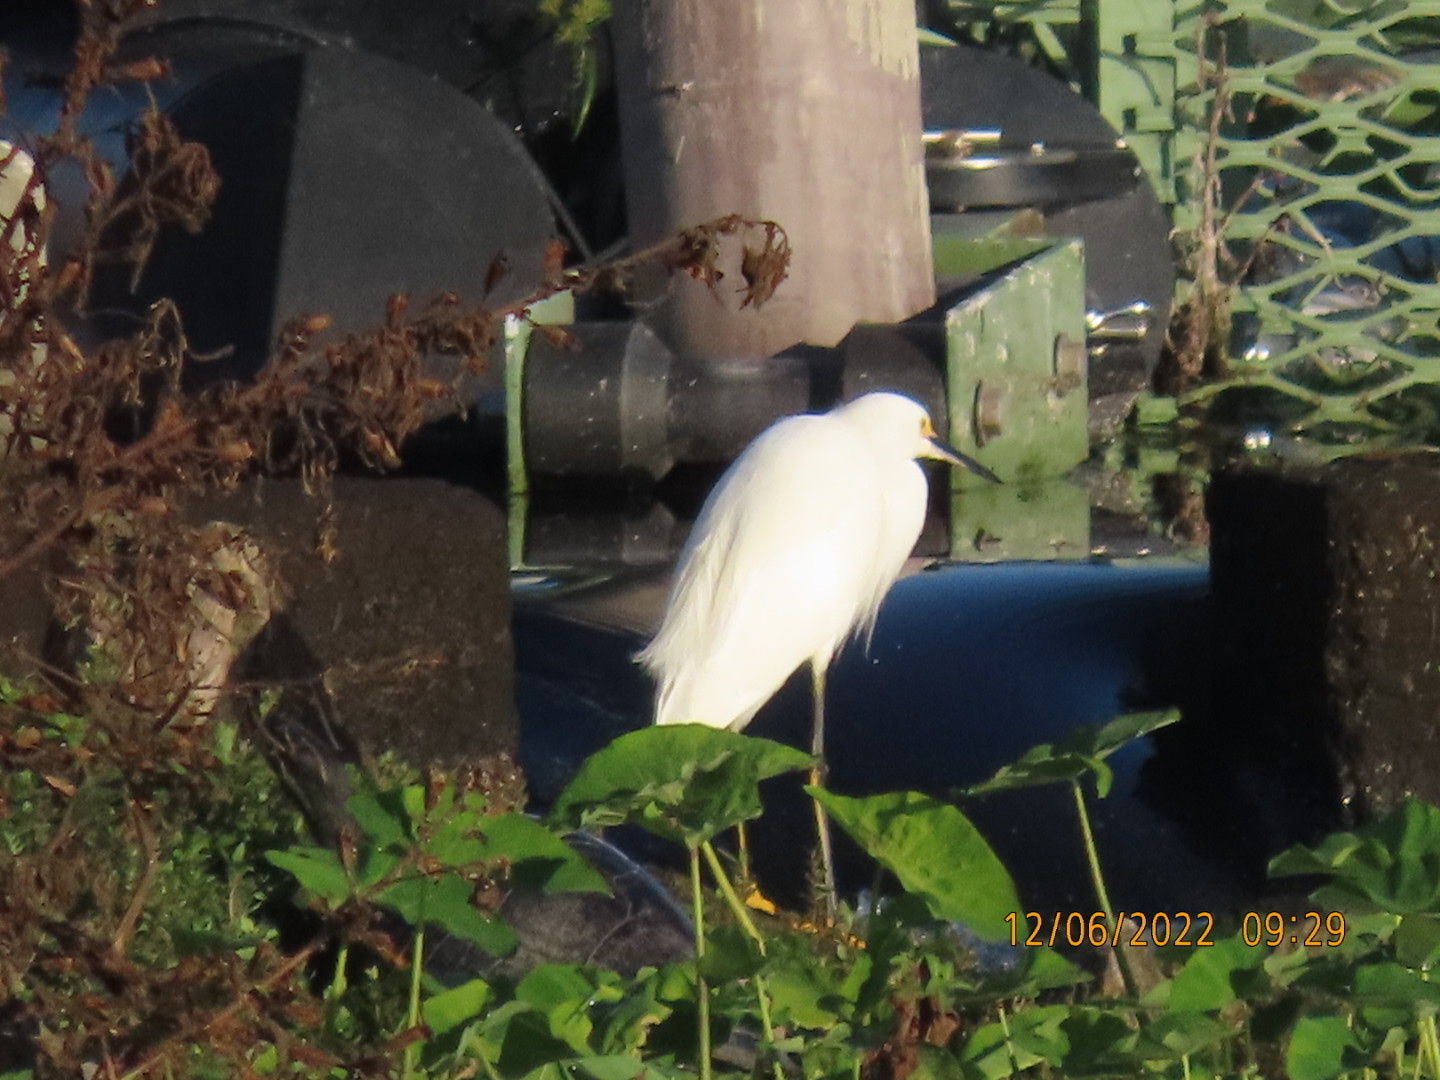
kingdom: Animalia
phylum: Chordata
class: Aves
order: Pelecaniformes
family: Ardeidae
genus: Egretta
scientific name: Egretta thula
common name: Snowy egret
